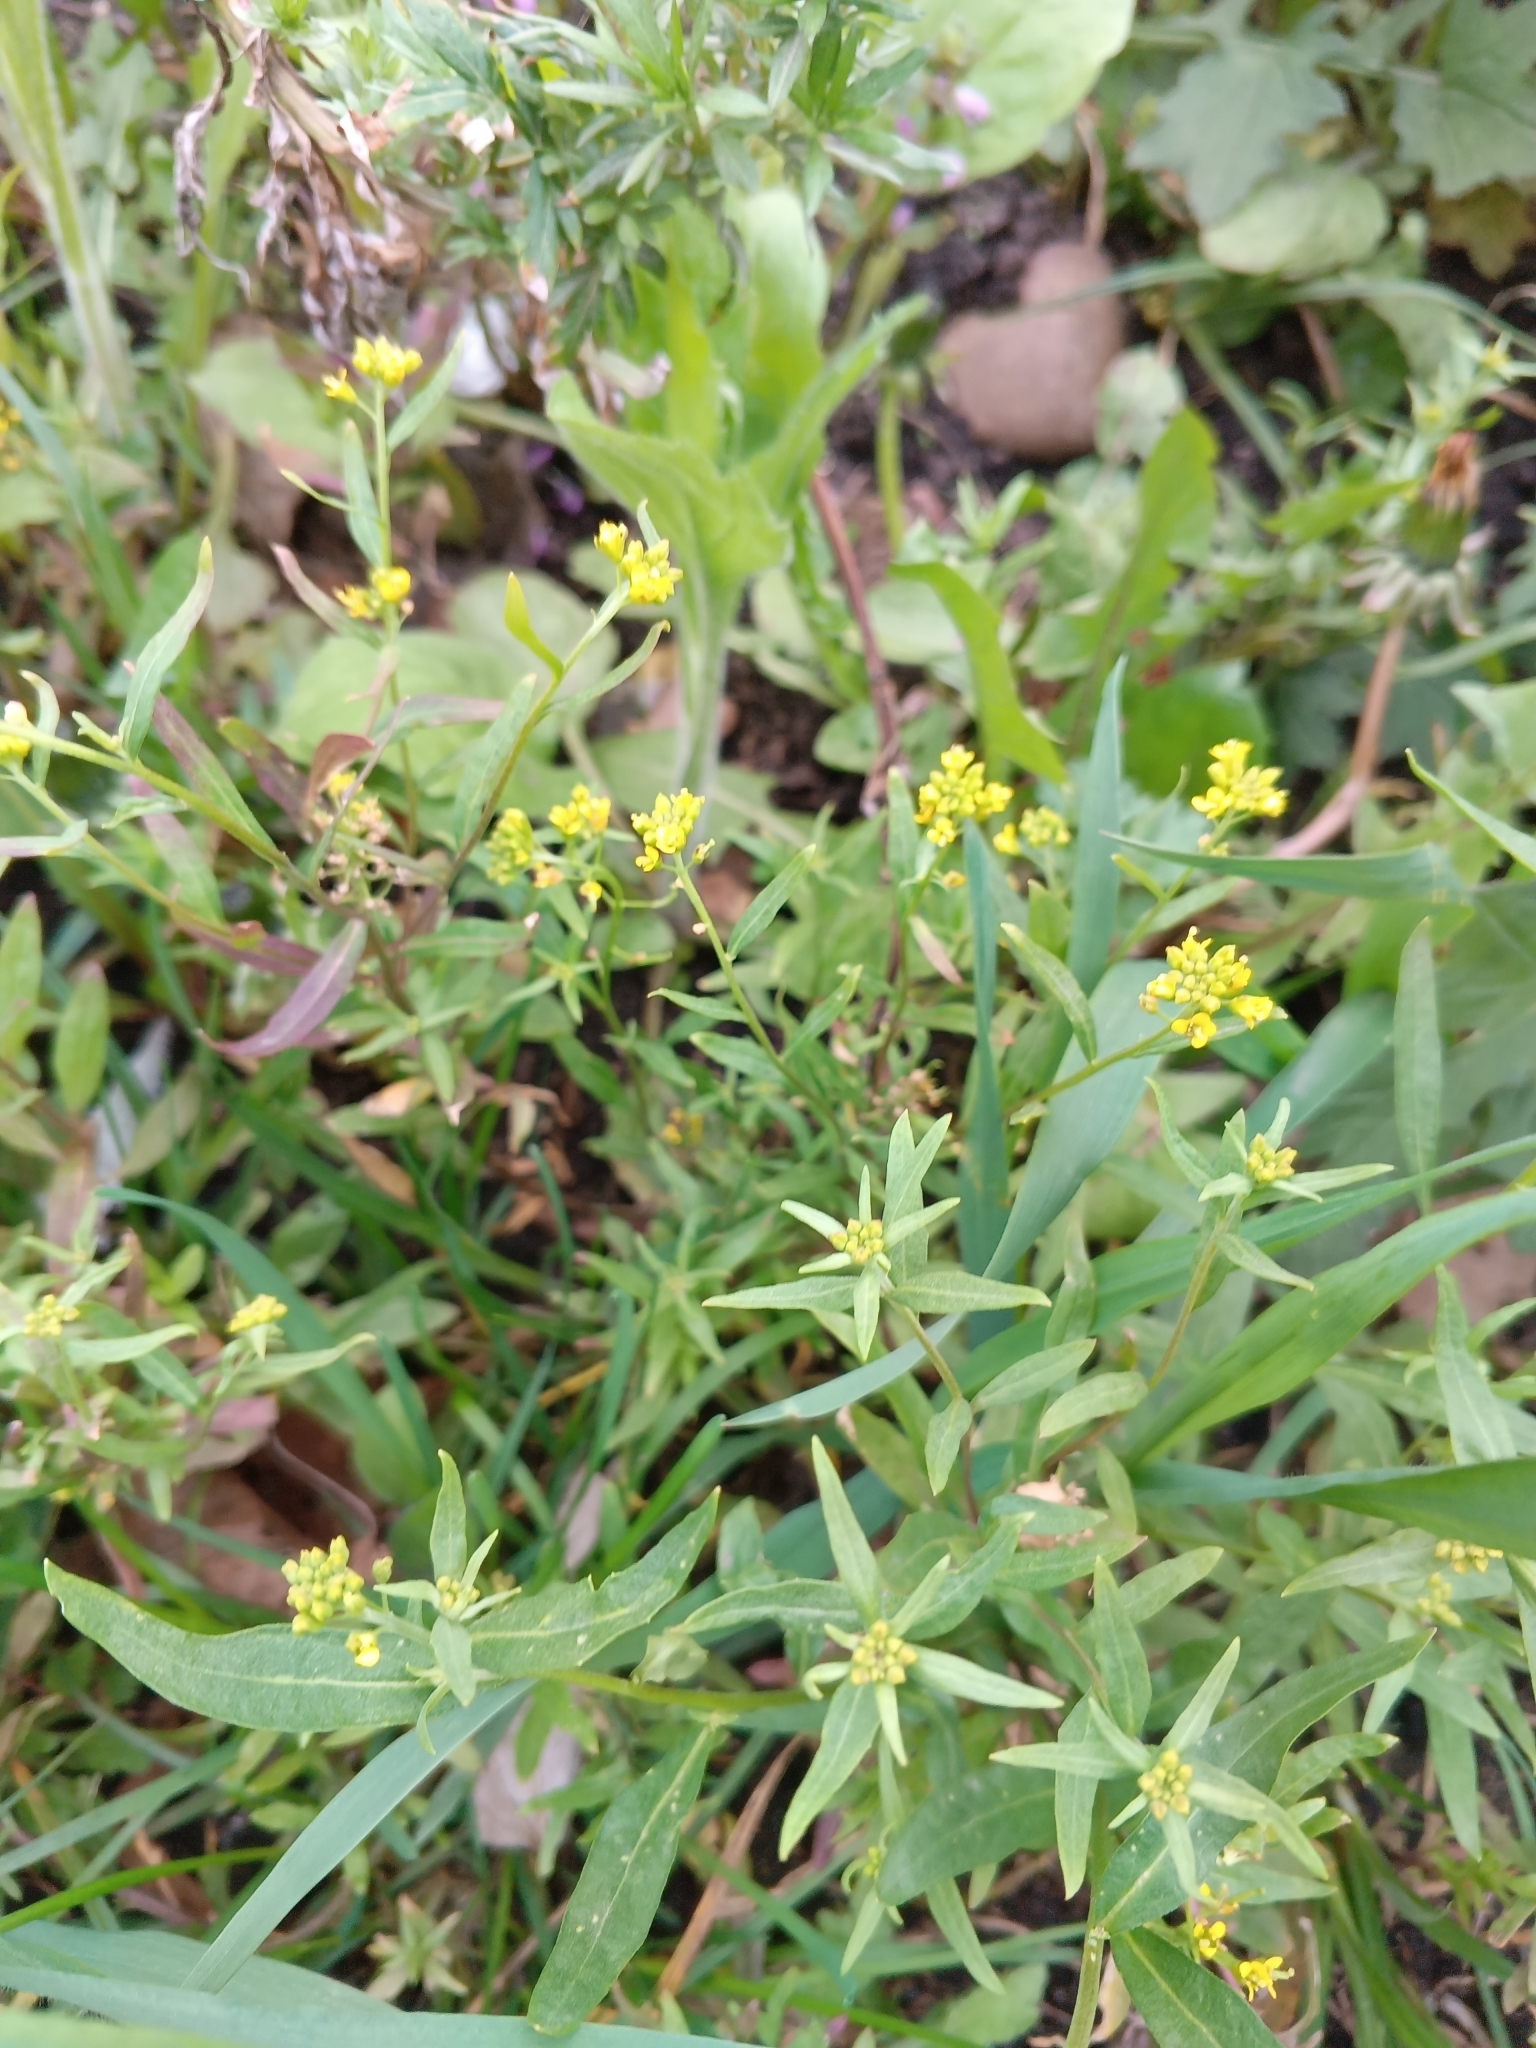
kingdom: Plantae
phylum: Tracheophyta
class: Magnoliopsida
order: Brassicales
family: Brassicaceae
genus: Erysimum
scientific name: Erysimum cheiranthoides
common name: Treacle mustard
